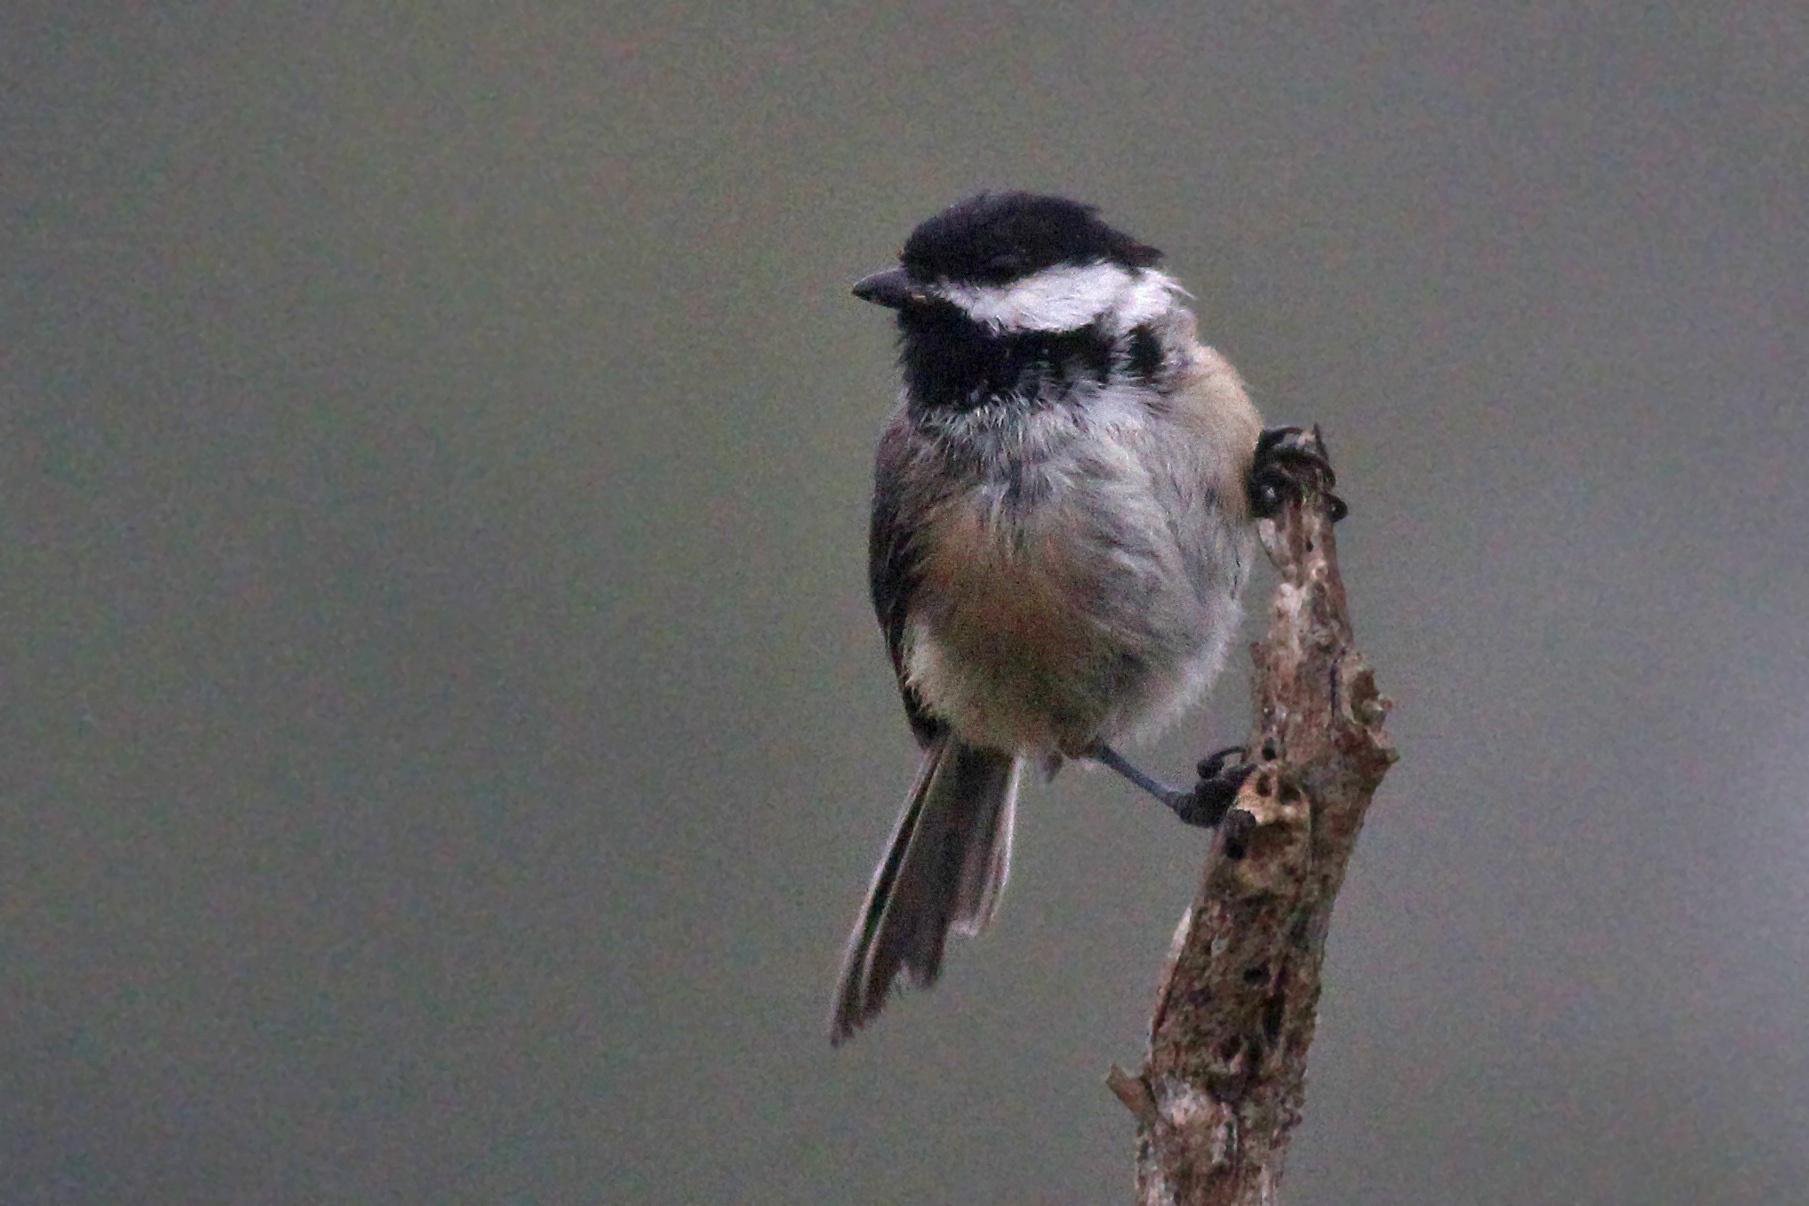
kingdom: Animalia
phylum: Chordata
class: Aves
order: Passeriformes
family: Paridae
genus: Poecile
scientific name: Poecile atricapillus
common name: Black-capped chickadee
